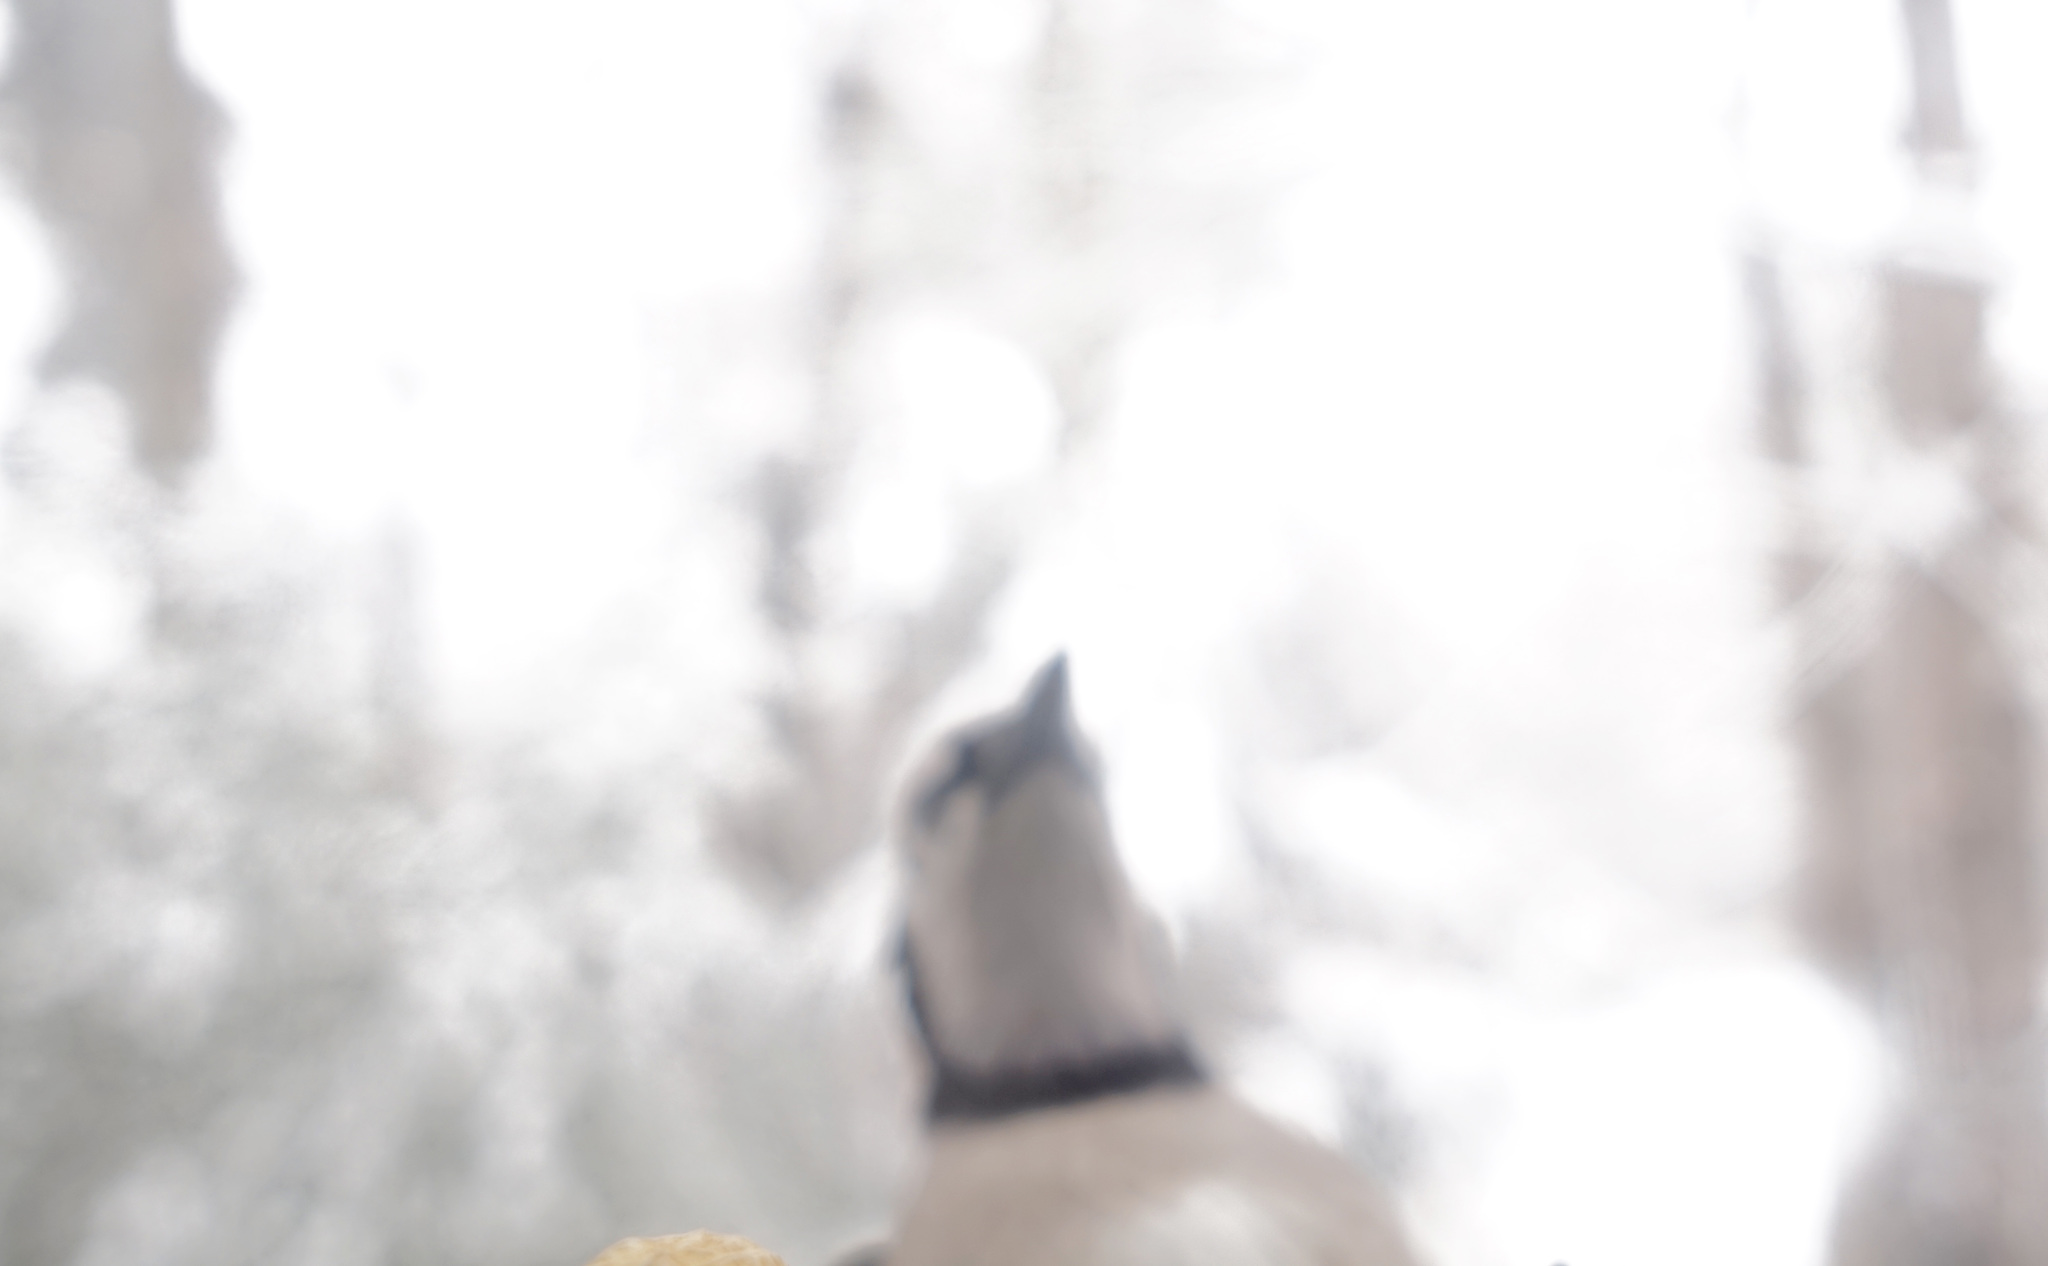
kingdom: Animalia
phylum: Chordata
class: Aves
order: Passeriformes
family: Corvidae
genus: Cyanocitta
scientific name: Cyanocitta cristata
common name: Blue jay
